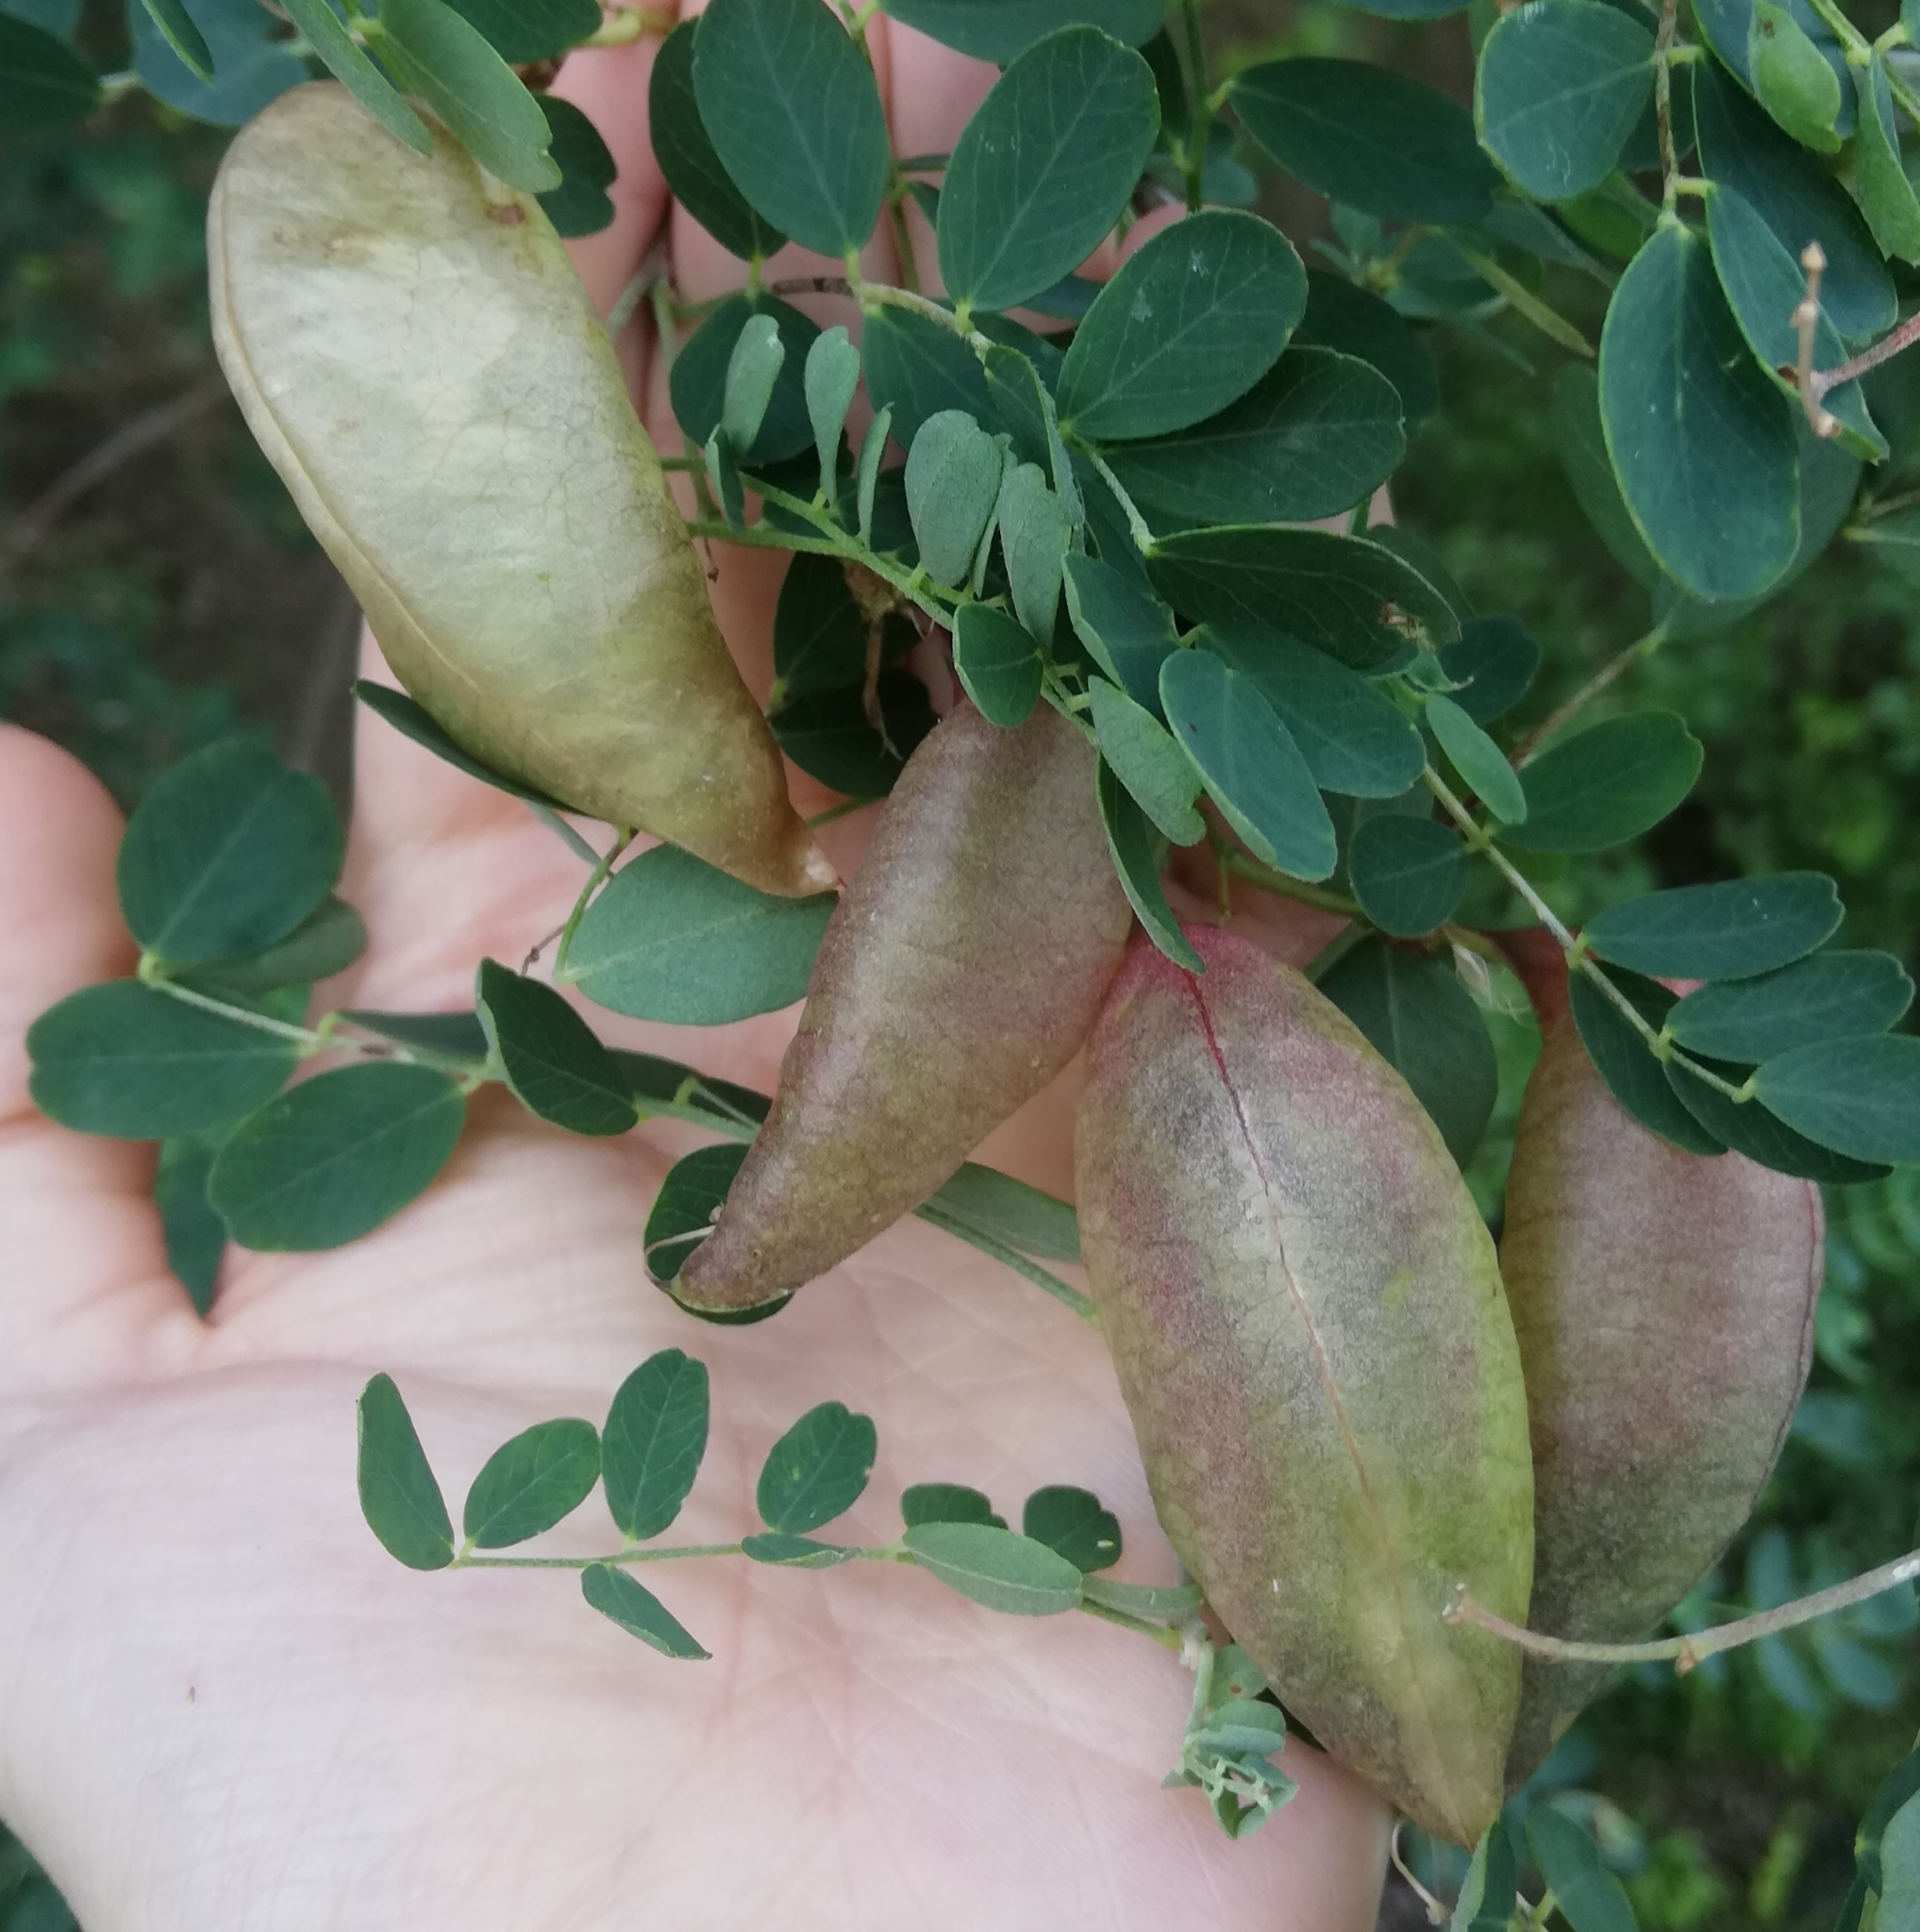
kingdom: Plantae
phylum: Tracheophyta
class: Magnoliopsida
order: Fabales
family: Fabaceae
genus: Colutea
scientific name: Colutea arborescens
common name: Bladder-senna
